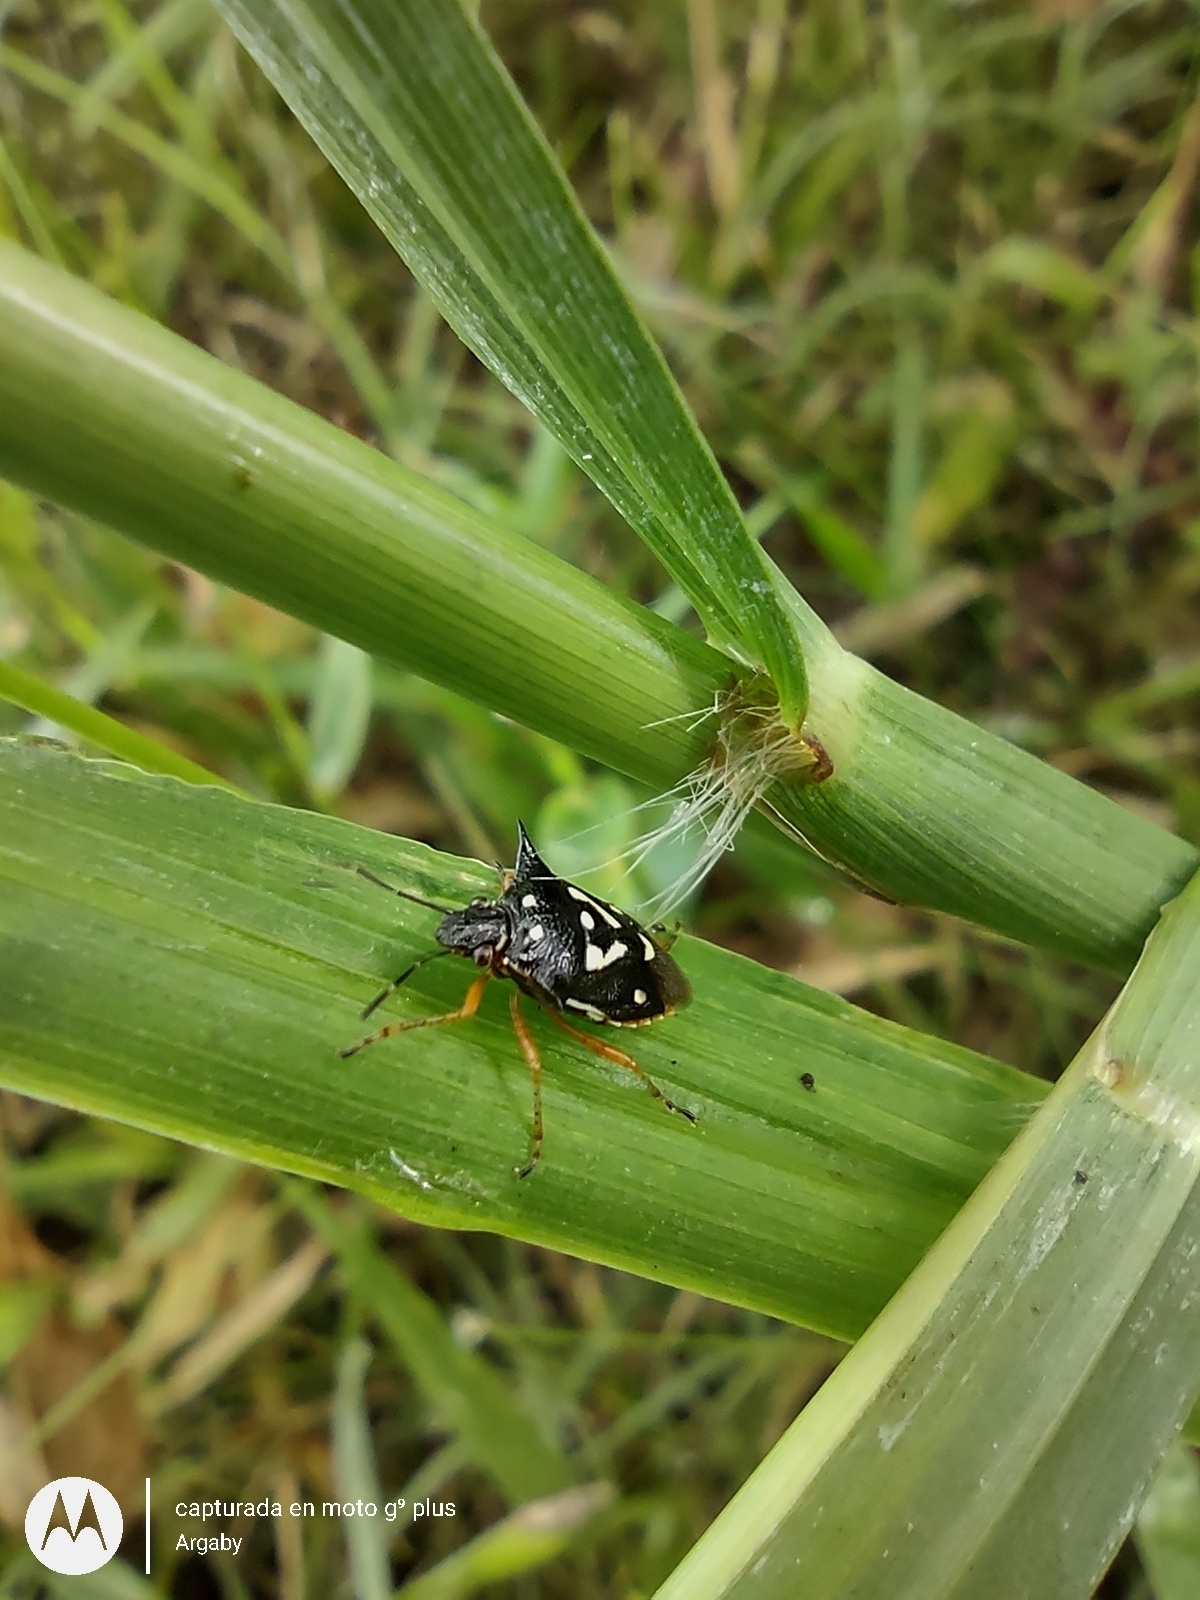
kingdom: Animalia
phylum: Arthropoda
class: Insecta
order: Hemiptera
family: Pentatomidae
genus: Mormidea
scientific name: Mormidea v-luteum
